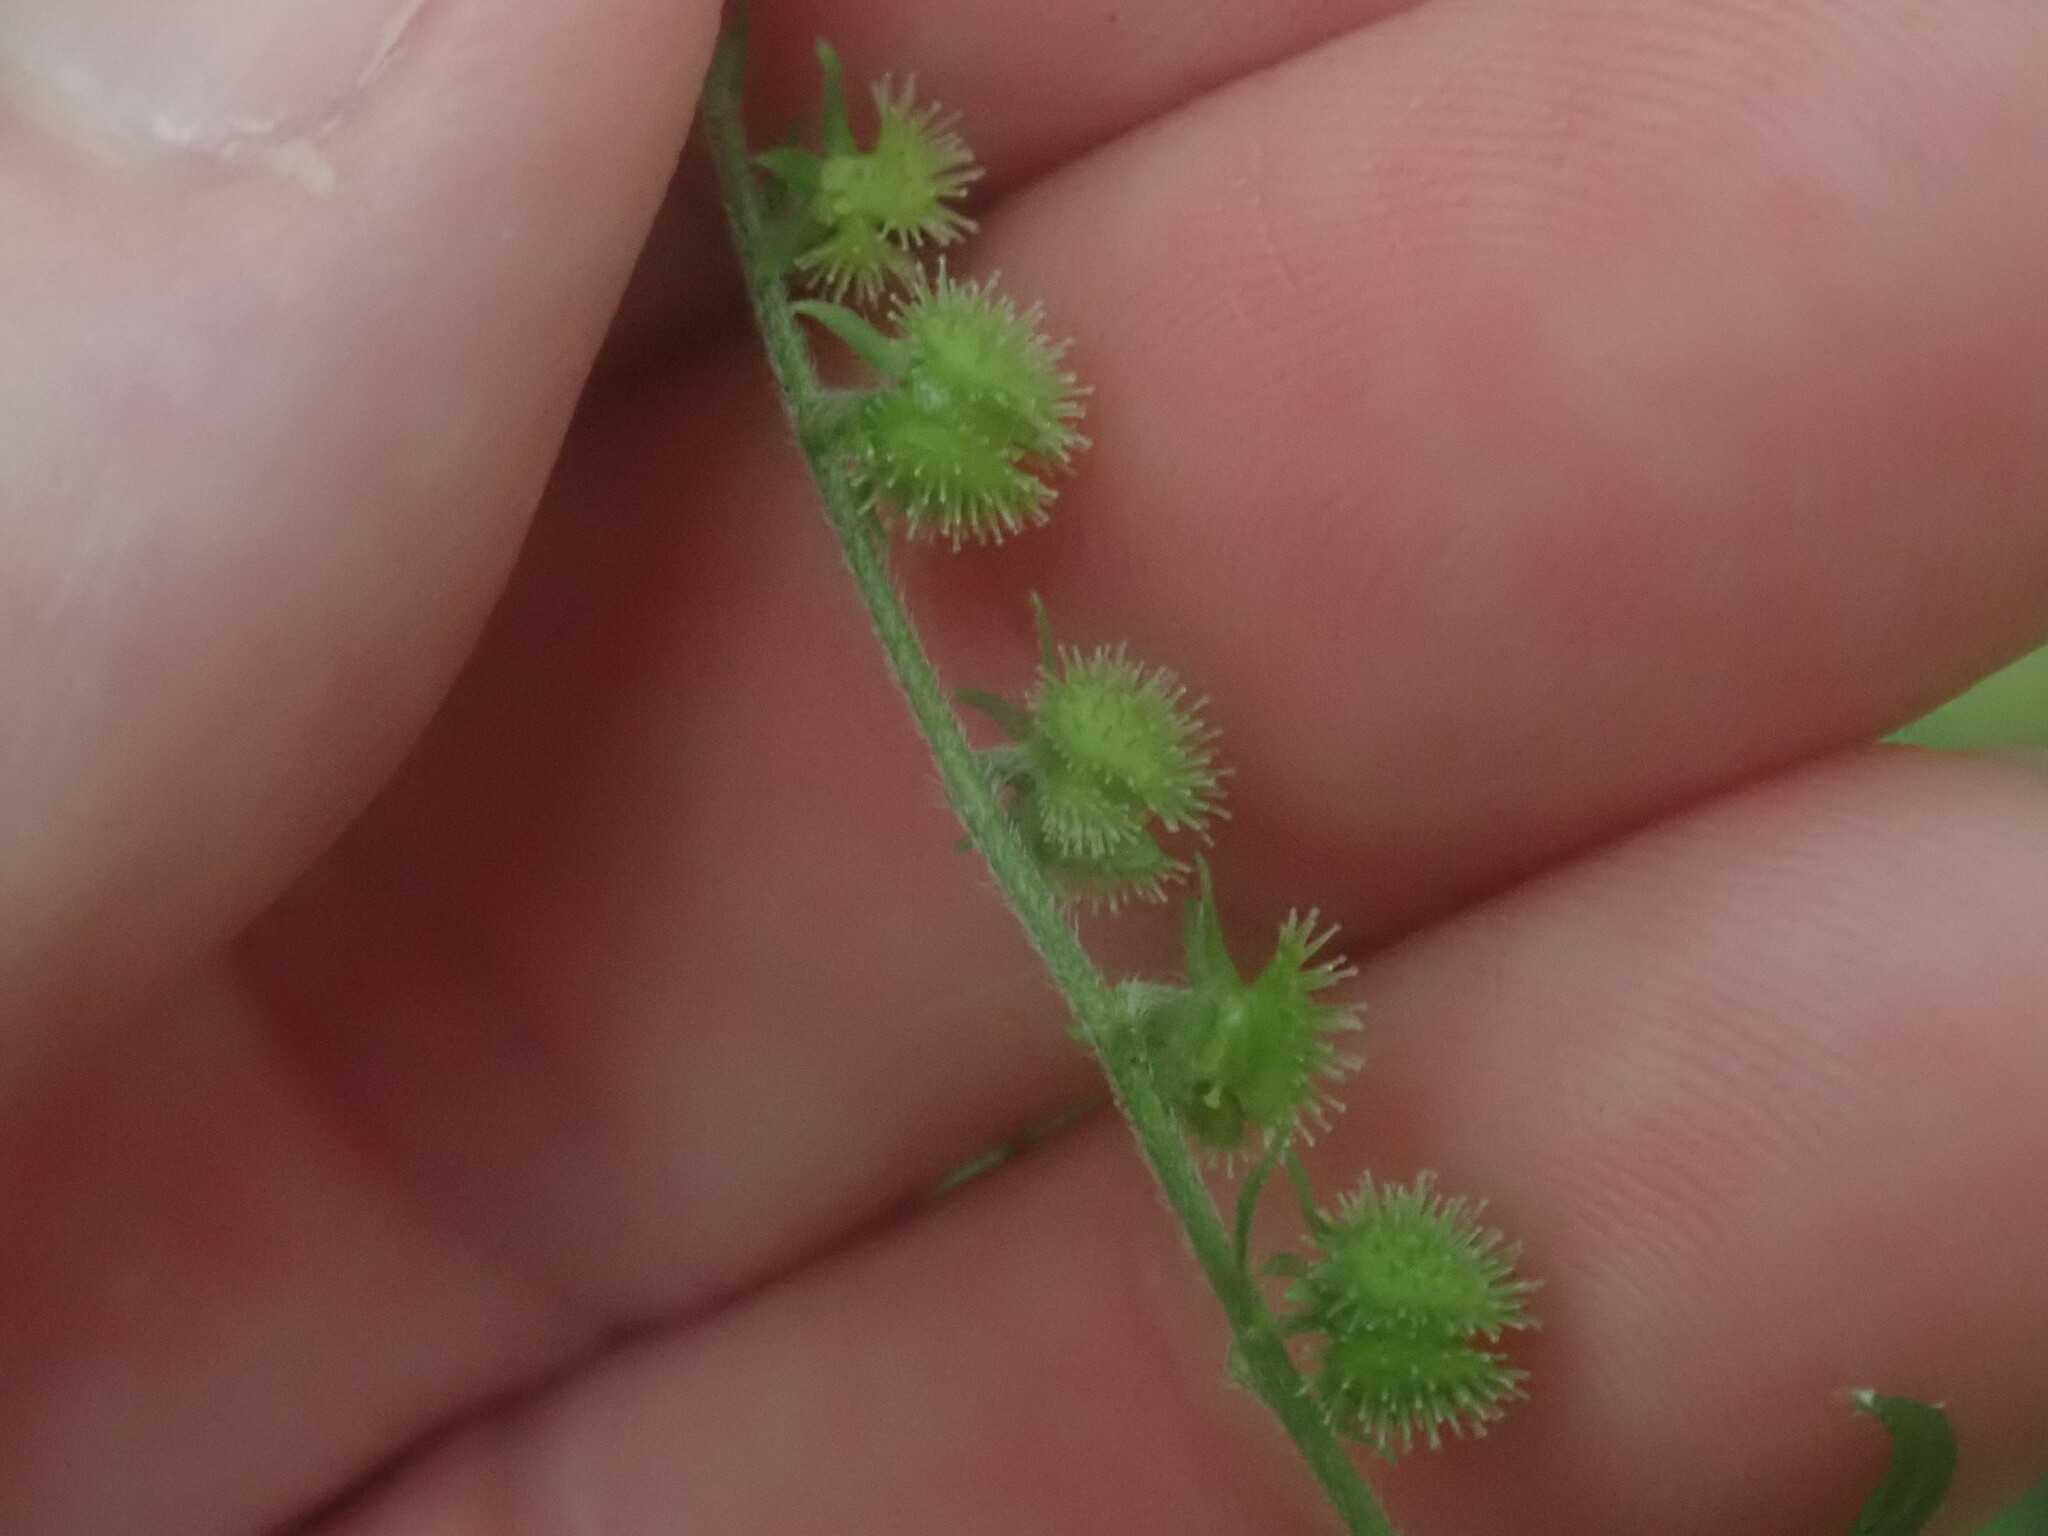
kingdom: Plantae
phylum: Tracheophyta
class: Magnoliopsida
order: Boraginales
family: Boraginaceae
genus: Hackelia
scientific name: Hackelia virginiana
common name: Beggar's-lice
